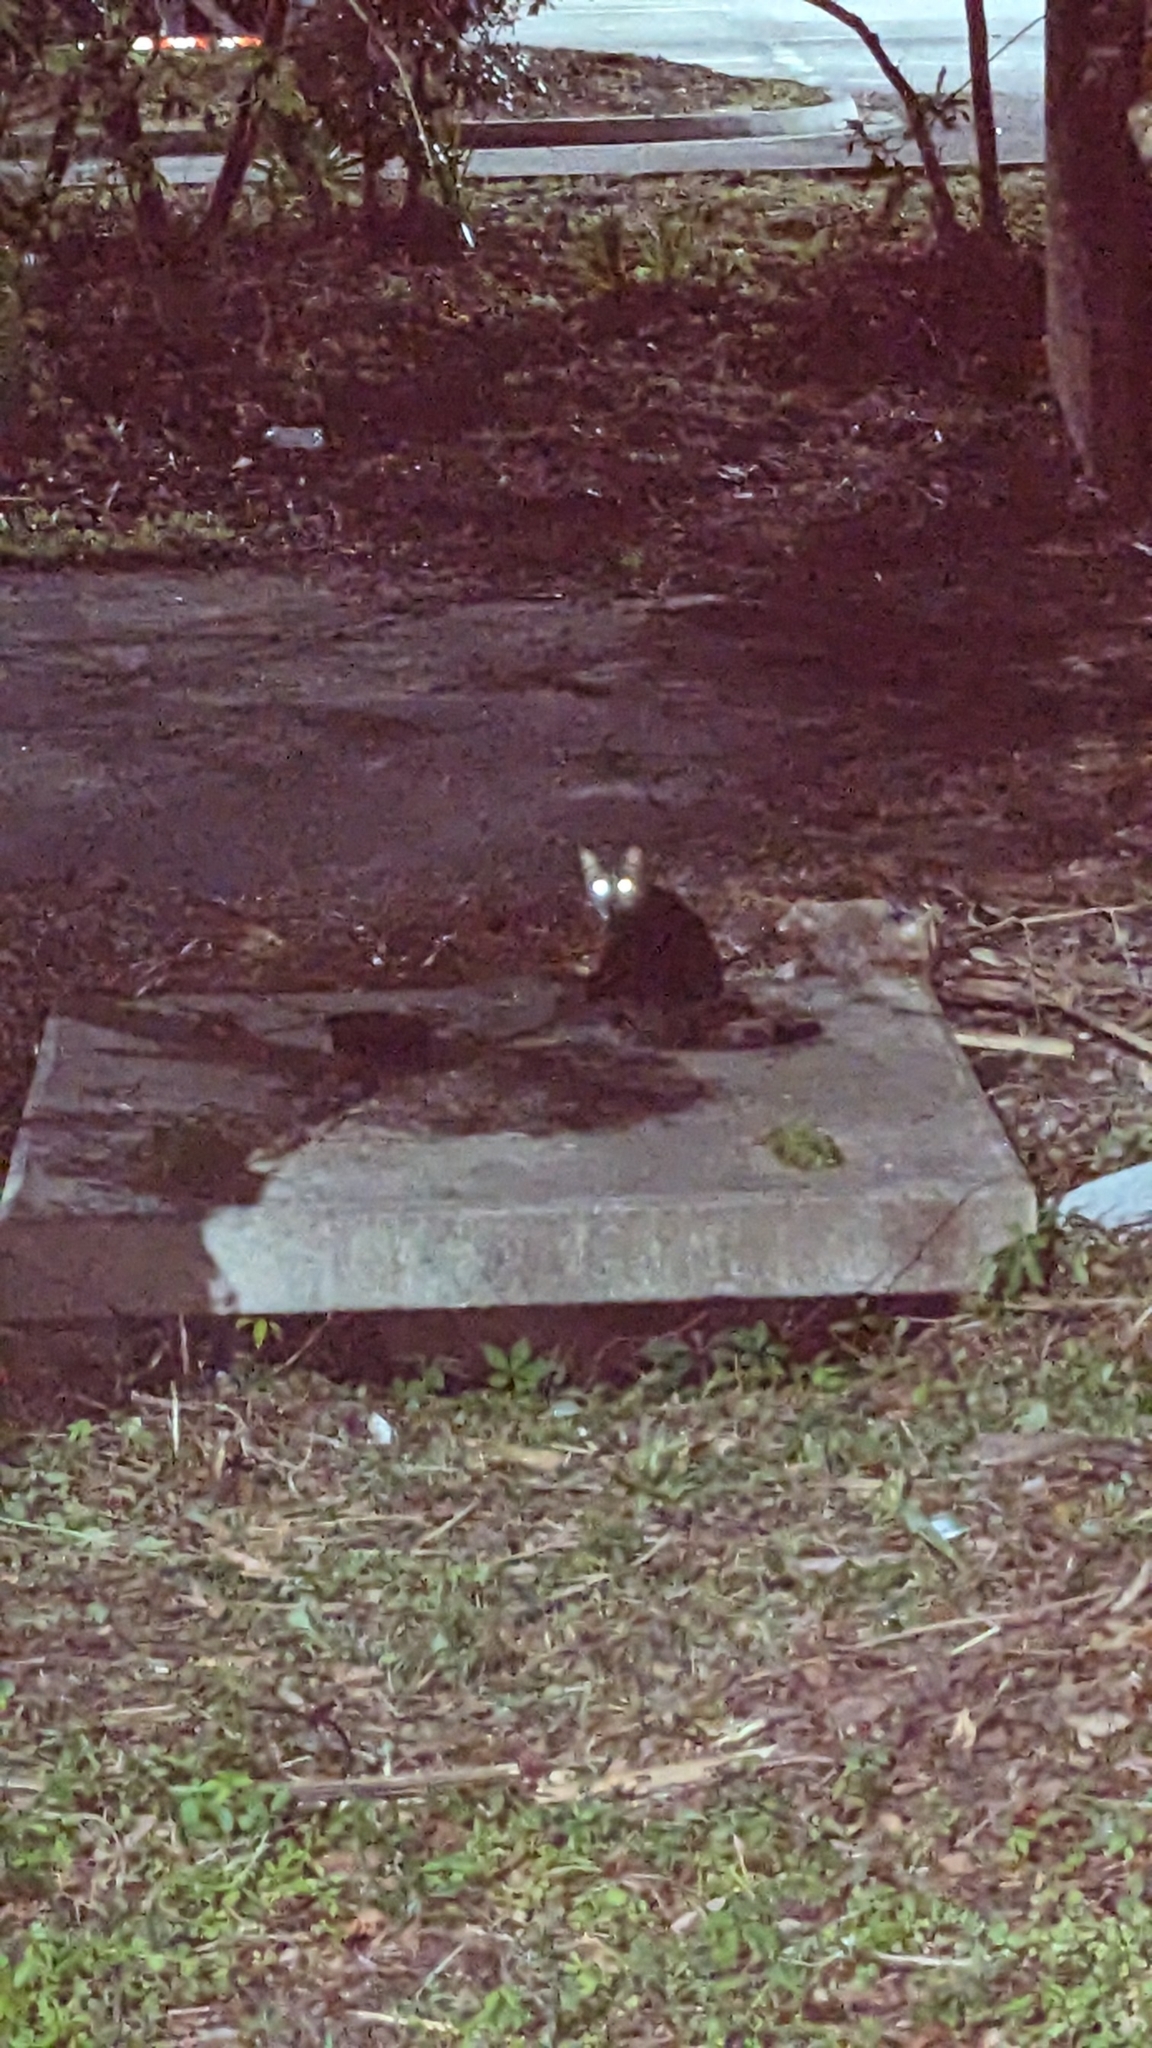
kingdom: Animalia
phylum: Chordata
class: Mammalia
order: Carnivora
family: Felidae
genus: Felis
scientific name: Felis catus
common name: Domestic cat
